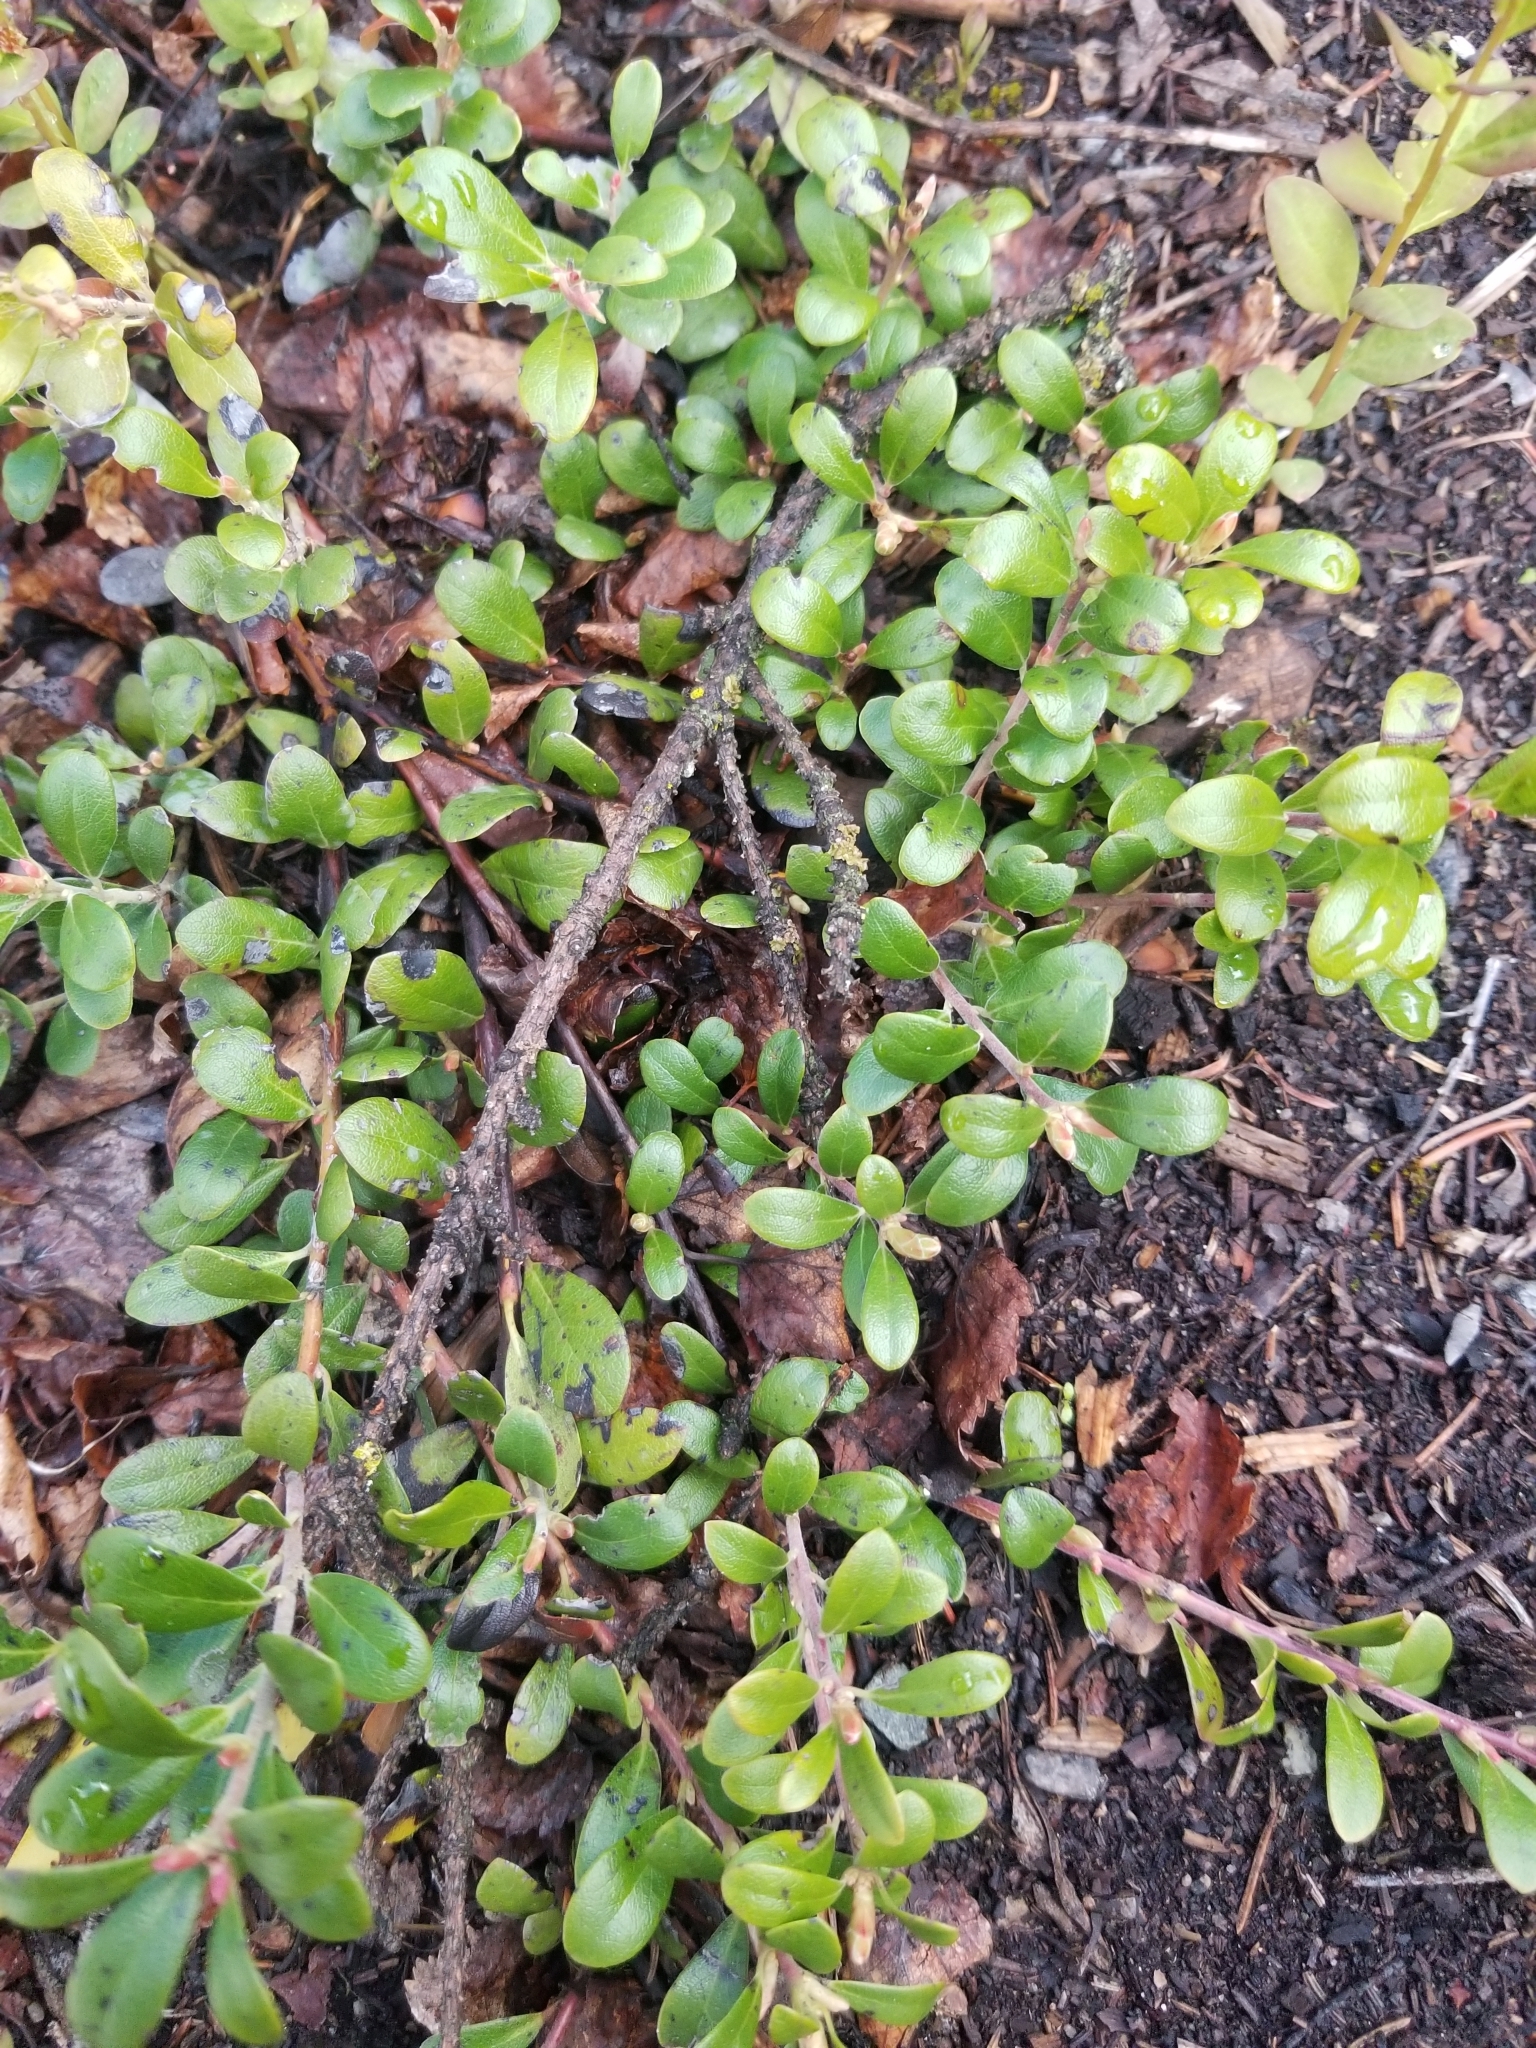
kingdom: Plantae
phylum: Tracheophyta
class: Magnoliopsida
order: Ericales
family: Ericaceae
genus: Arctostaphylos
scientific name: Arctostaphylos uva-ursi
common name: Bearberry
